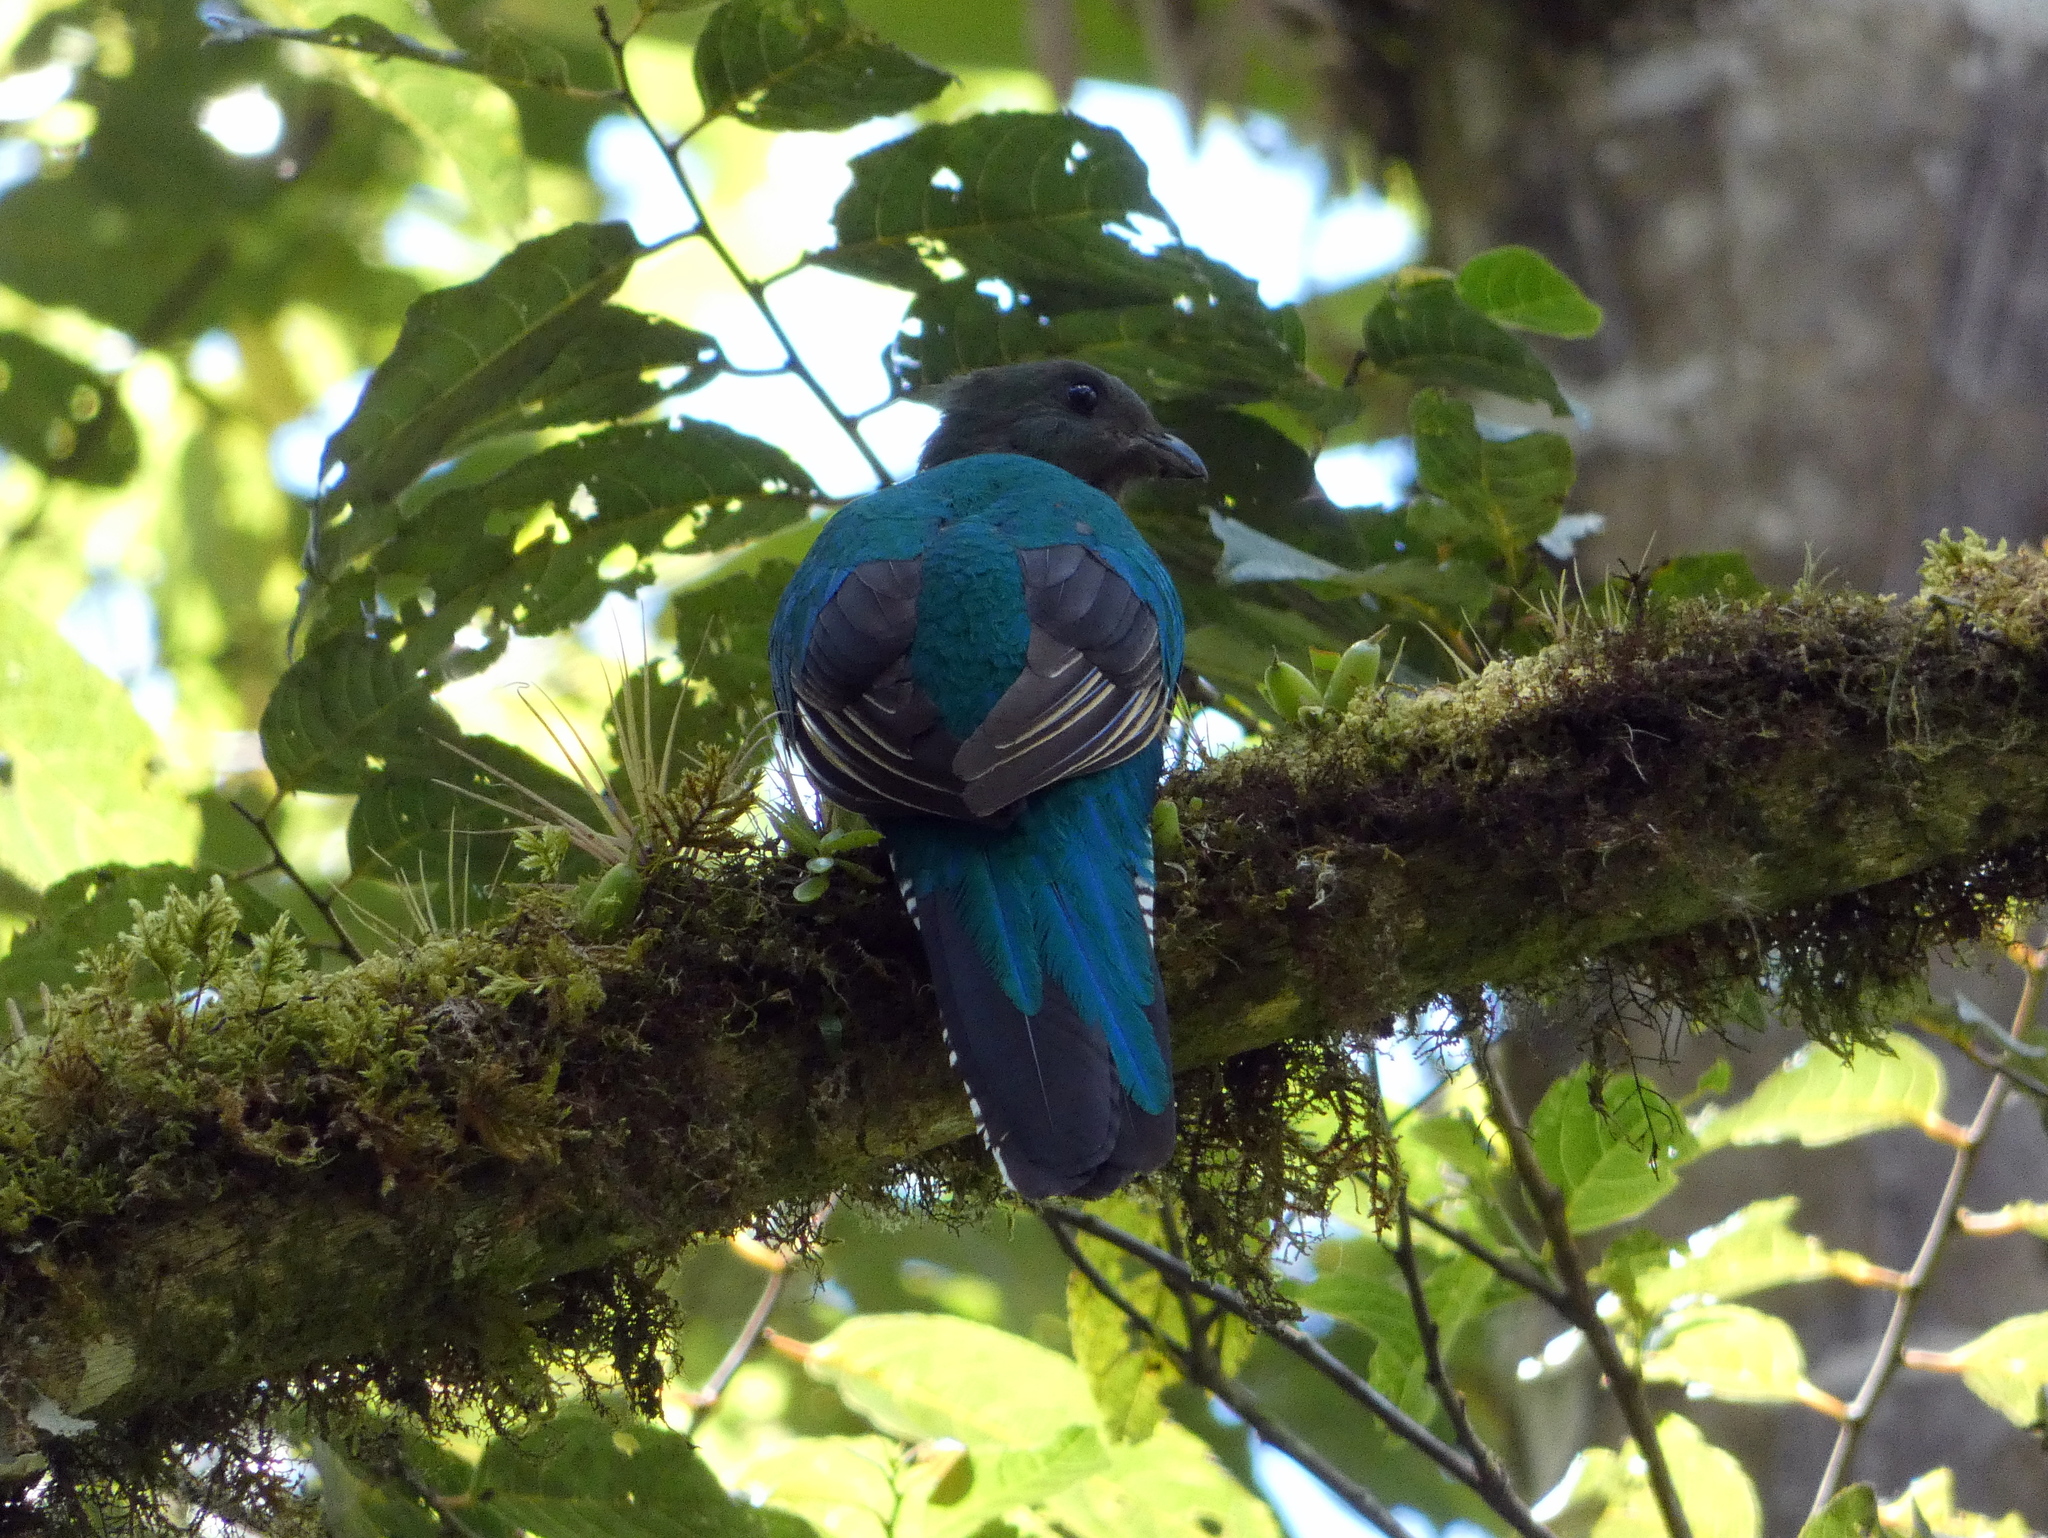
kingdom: Animalia
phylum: Chordata
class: Aves
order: Trogoniformes
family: Trogonidae
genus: Pharomachrus
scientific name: Pharomachrus mocinno
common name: Resplendent quetzal
